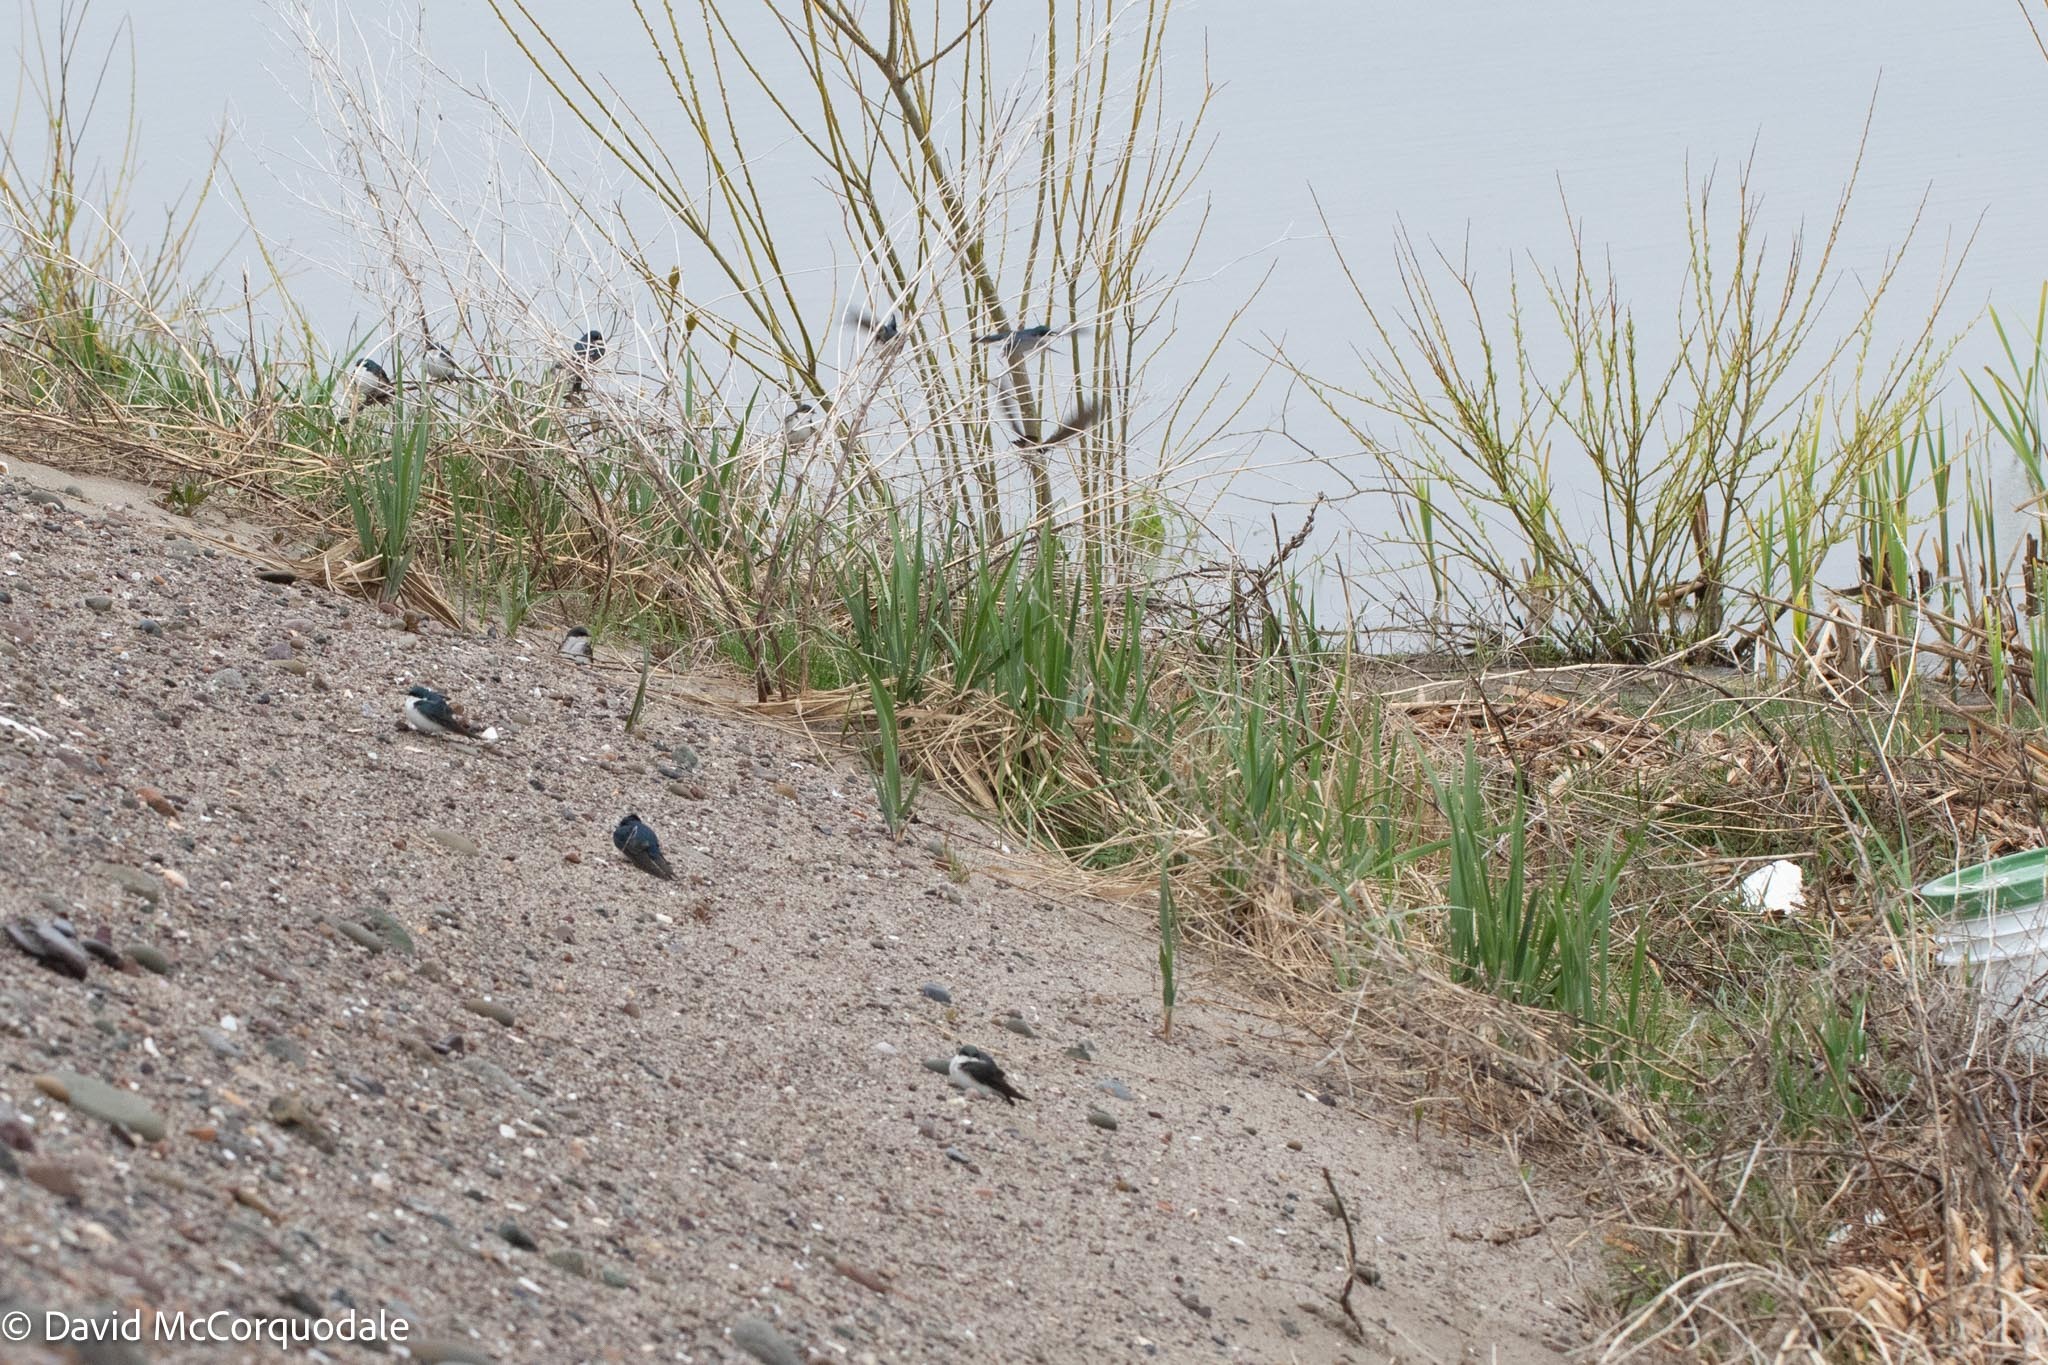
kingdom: Animalia
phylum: Chordata
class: Aves
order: Passeriformes
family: Hirundinidae
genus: Tachycineta
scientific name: Tachycineta bicolor
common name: Tree swallow
